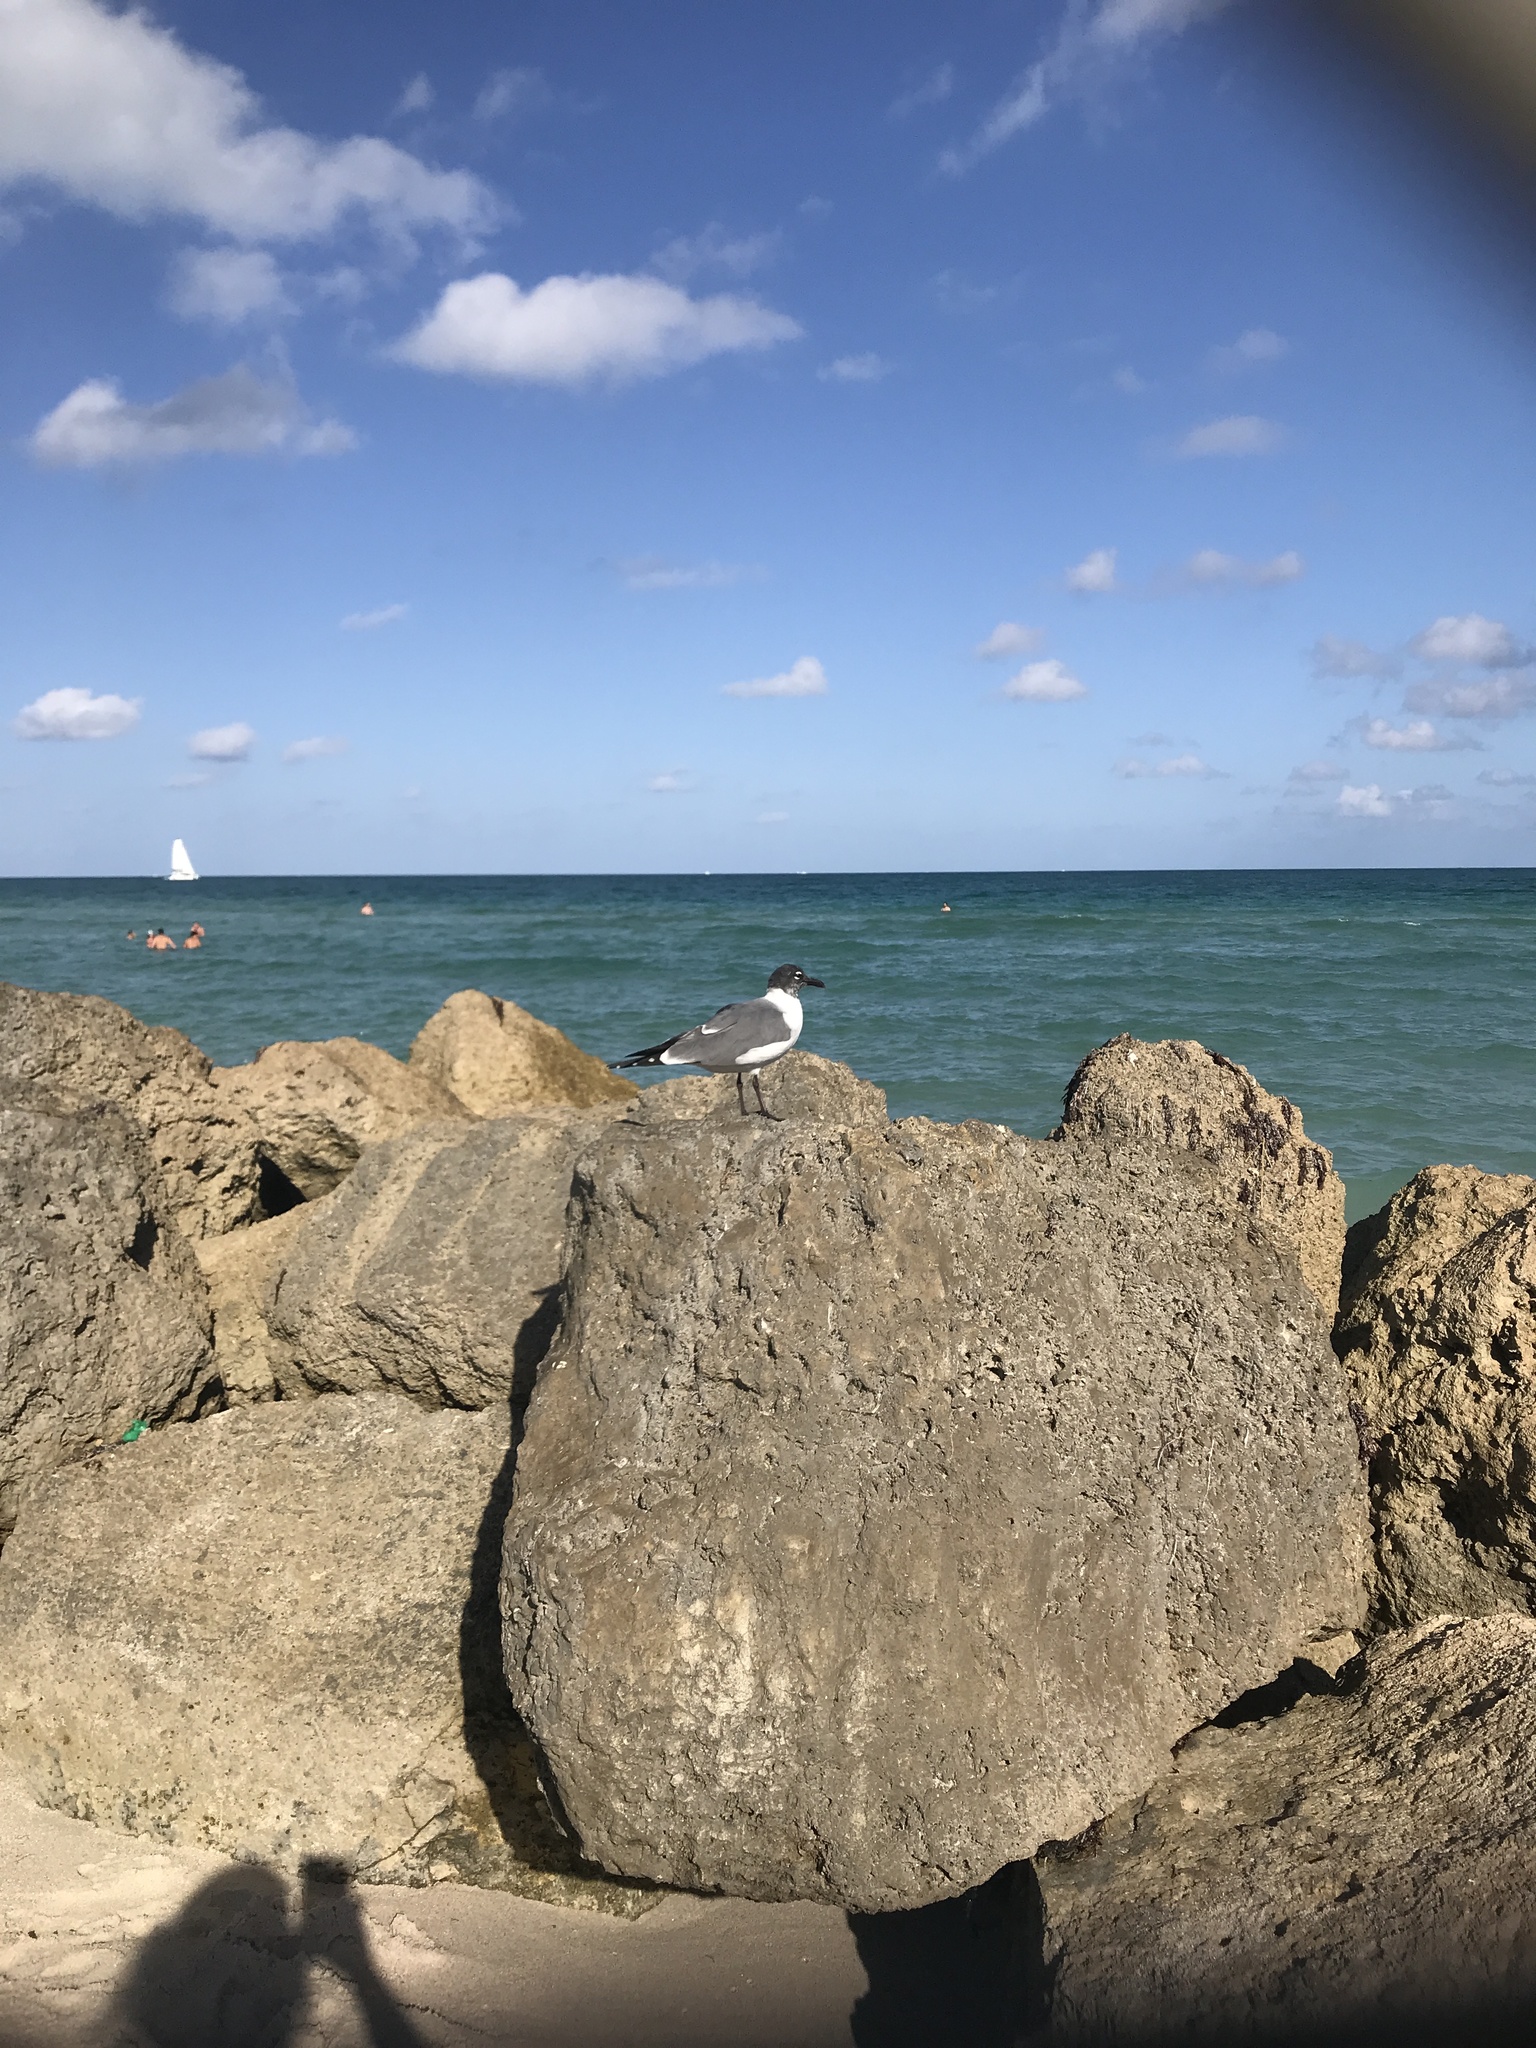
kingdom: Animalia
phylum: Chordata
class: Aves
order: Charadriiformes
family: Laridae
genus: Leucophaeus
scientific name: Leucophaeus atricilla
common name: Laughing gull
